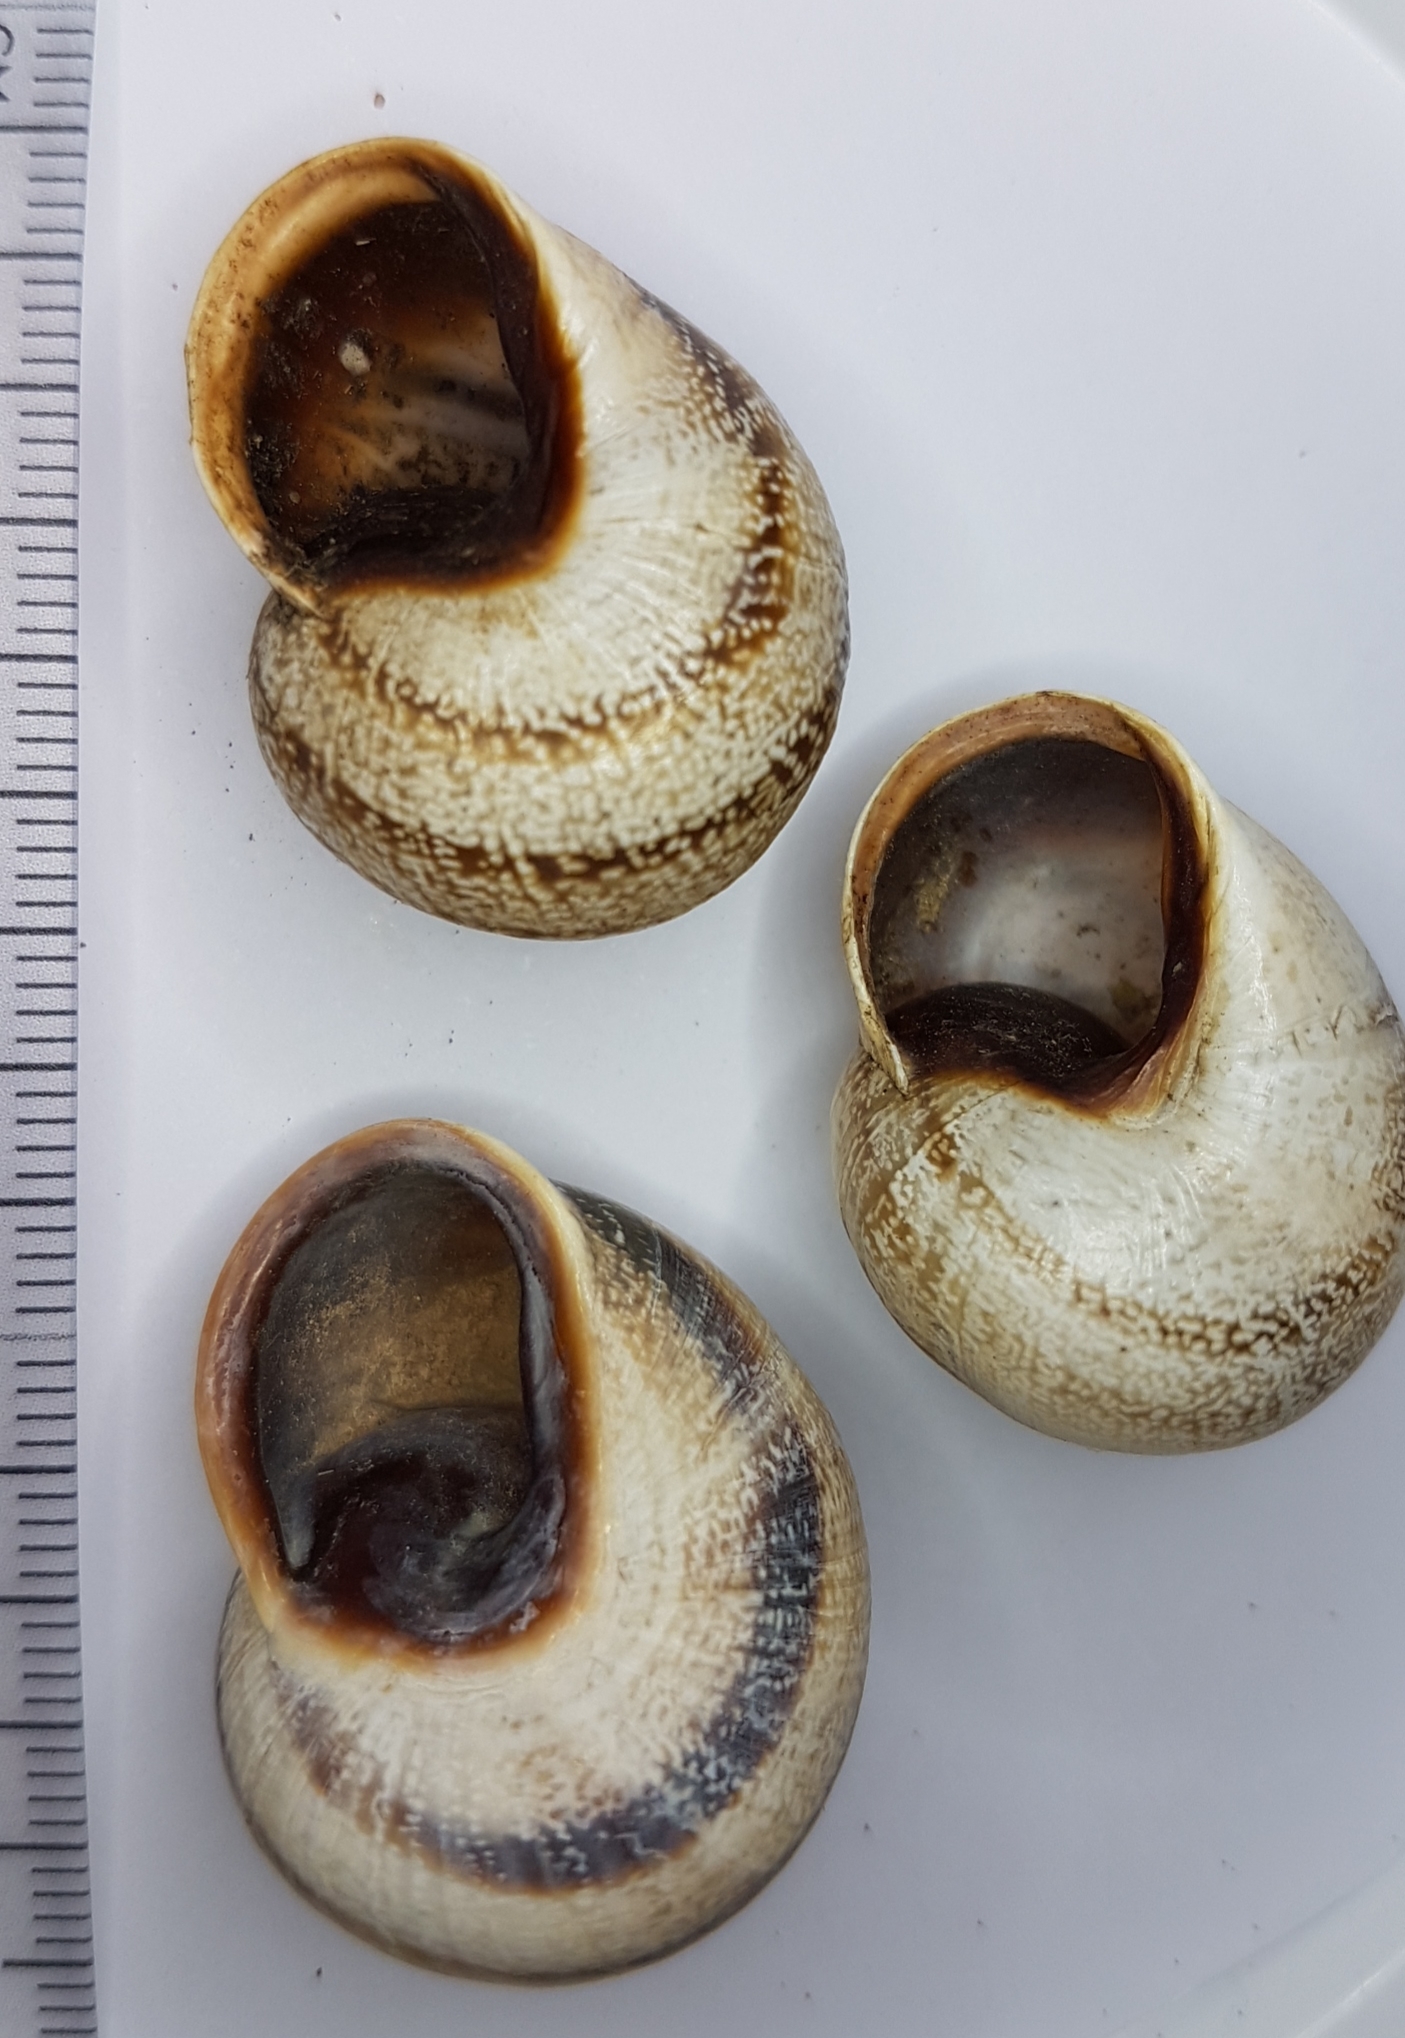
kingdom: Animalia
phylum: Mollusca
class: Gastropoda
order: Stylommatophora
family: Helicidae
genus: Otala
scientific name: Otala lactea
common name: Milk snail
